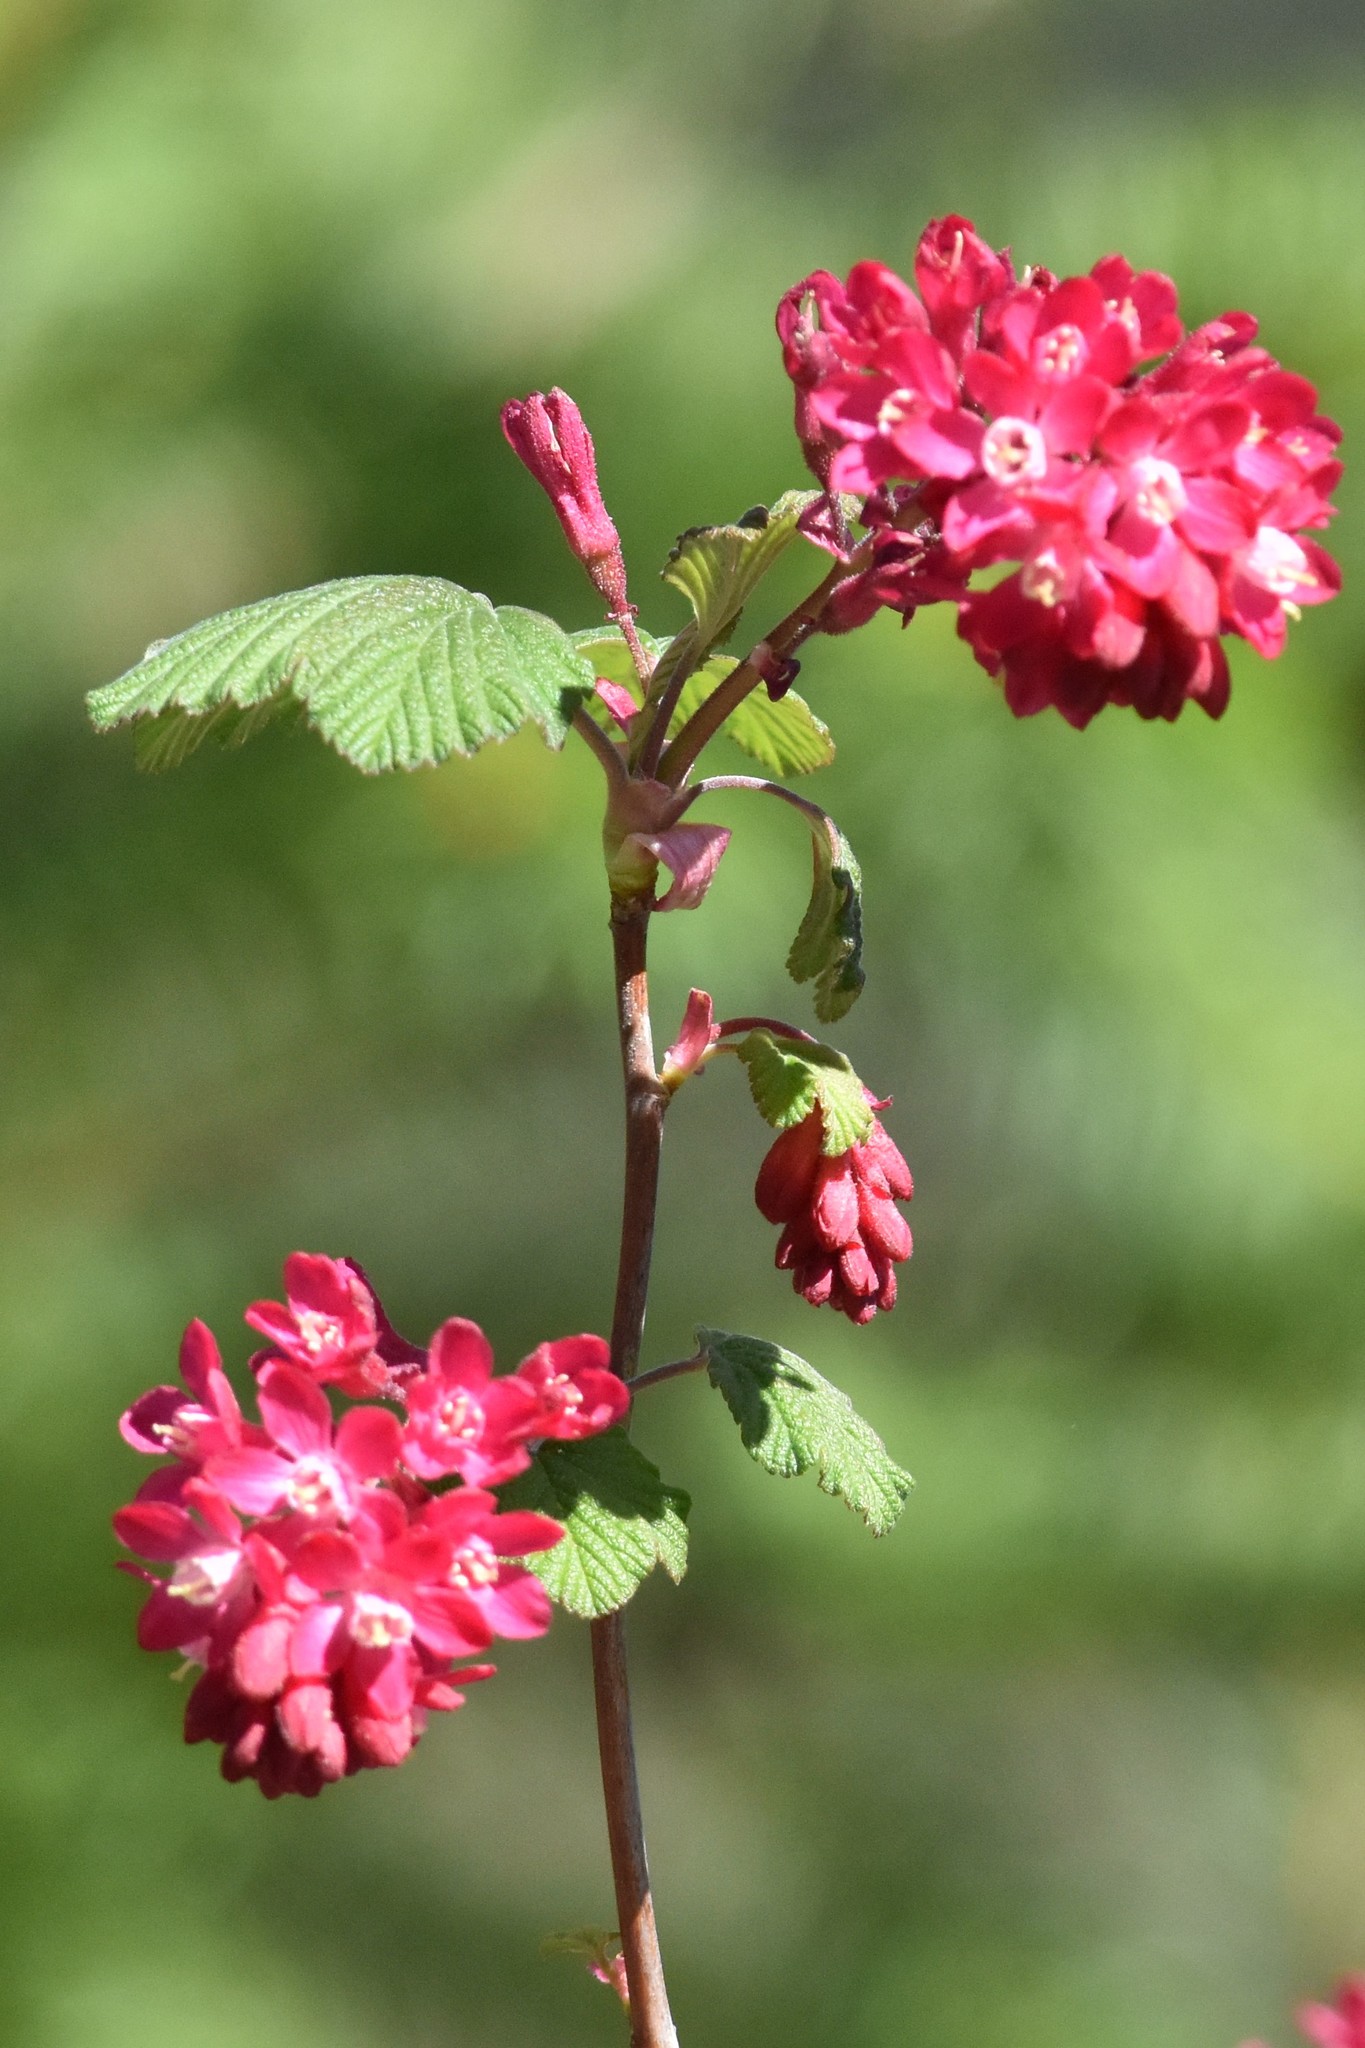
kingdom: Plantae
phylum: Tracheophyta
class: Magnoliopsida
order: Saxifragales
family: Grossulariaceae
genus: Ribes
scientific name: Ribes sanguineum
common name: Flowering currant
